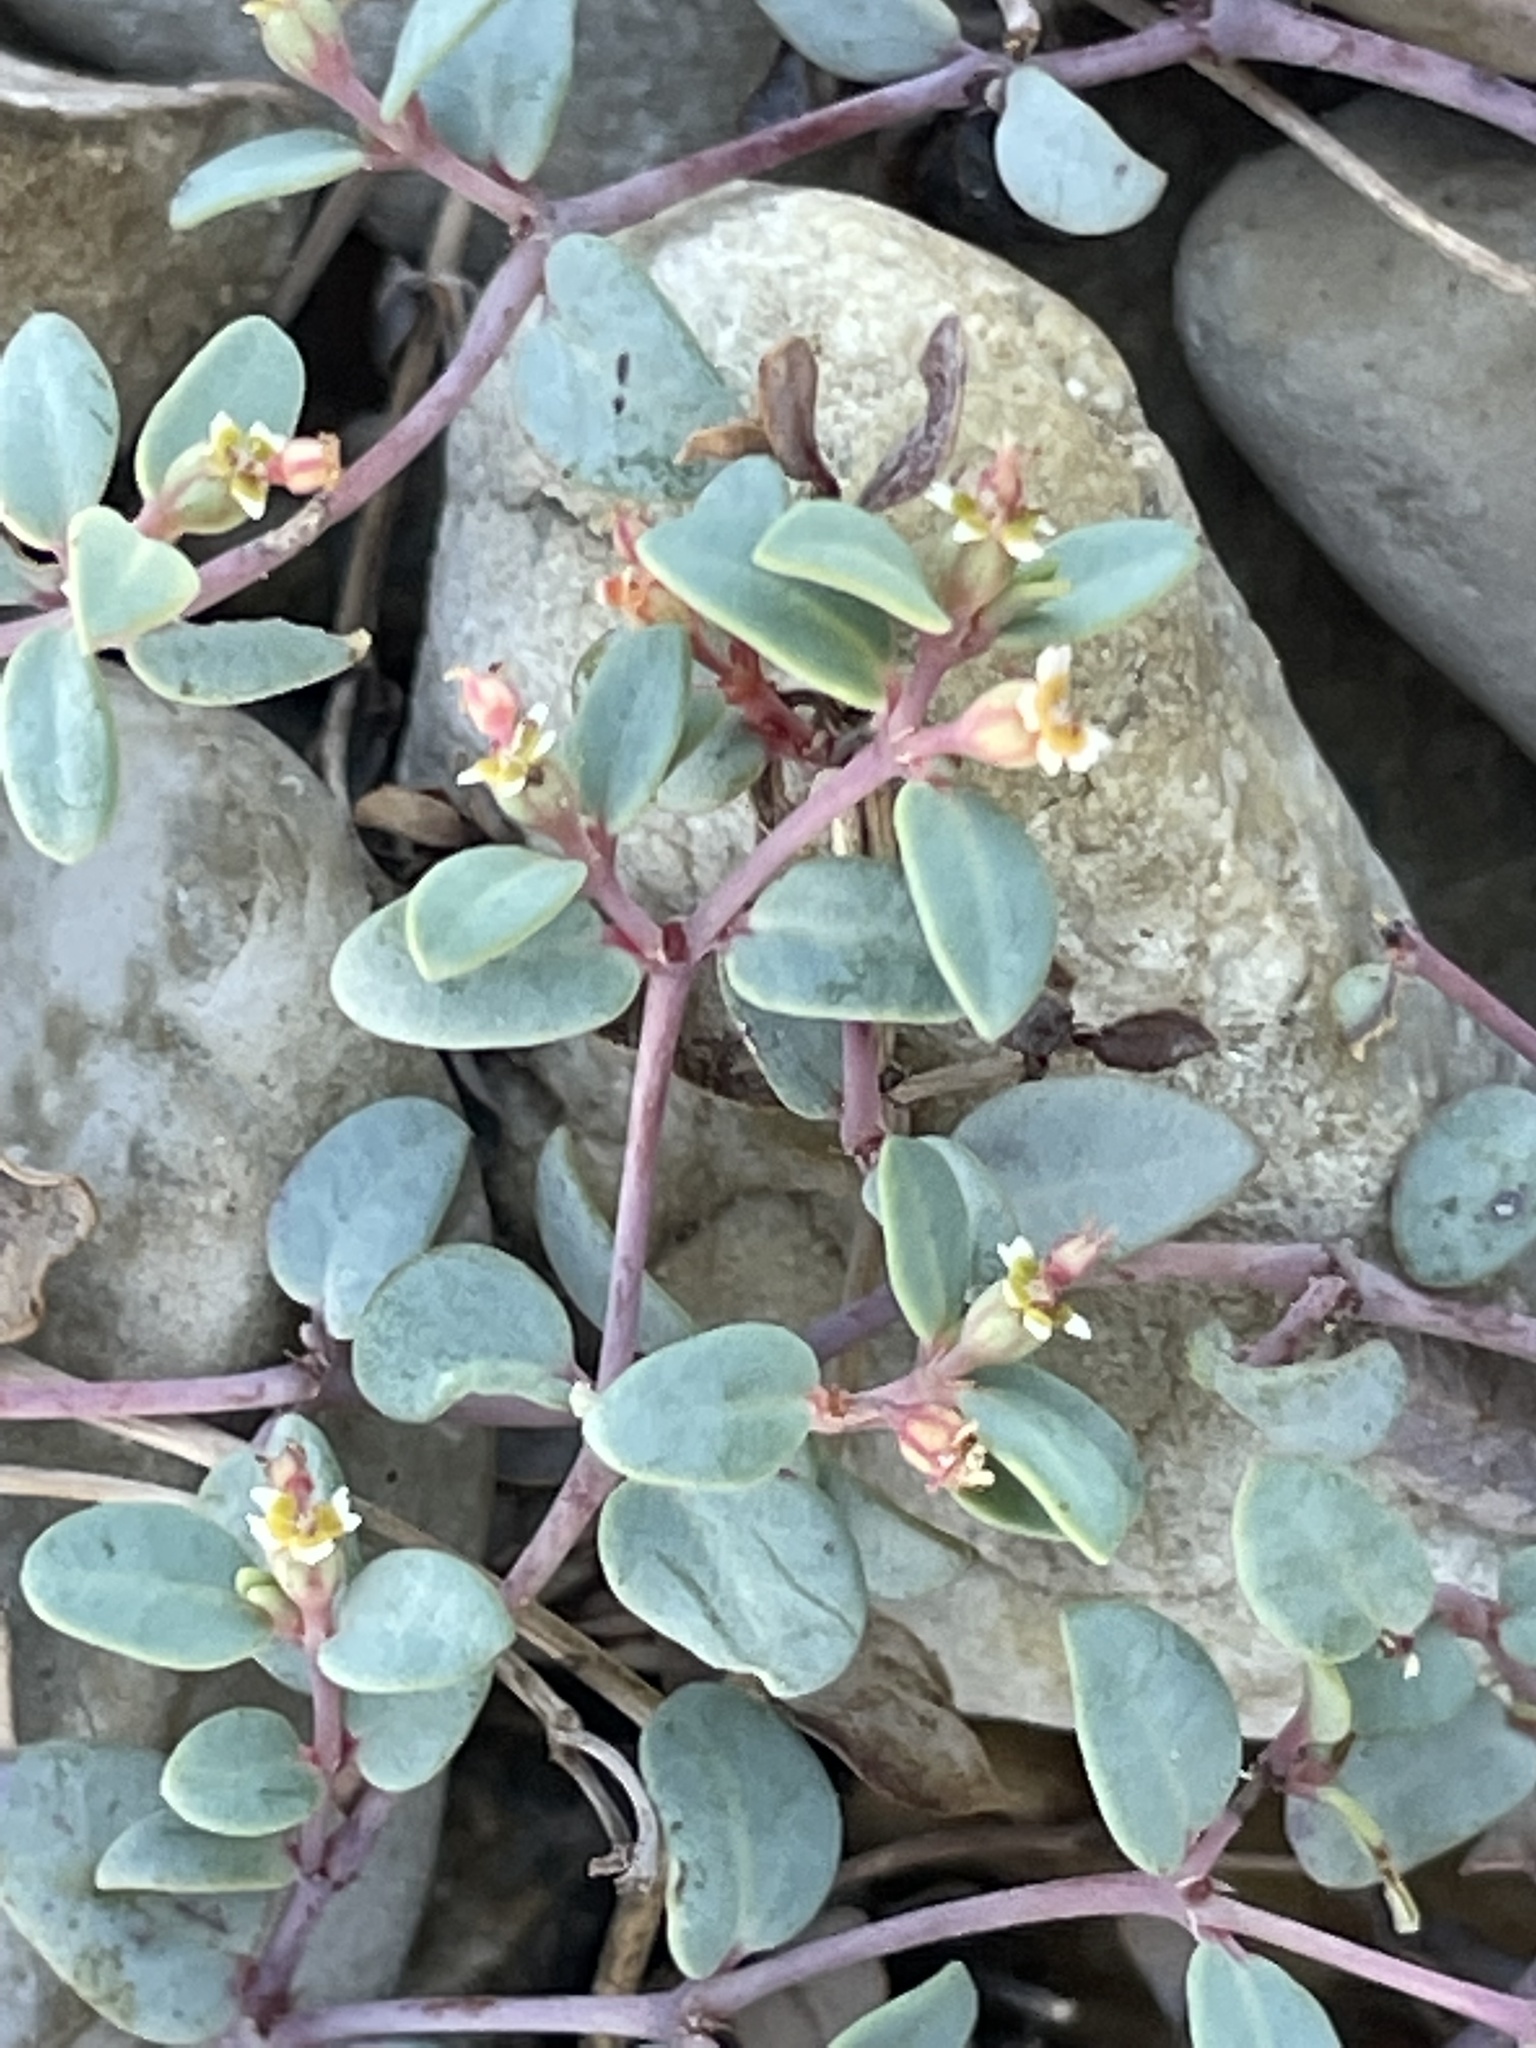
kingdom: Plantae
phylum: Tracheophyta
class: Magnoliopsida
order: Malpighiales
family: Euphorbiaceae
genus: Euphorbia
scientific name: Euphorbia fendleri
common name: Fendler's euphorbia
